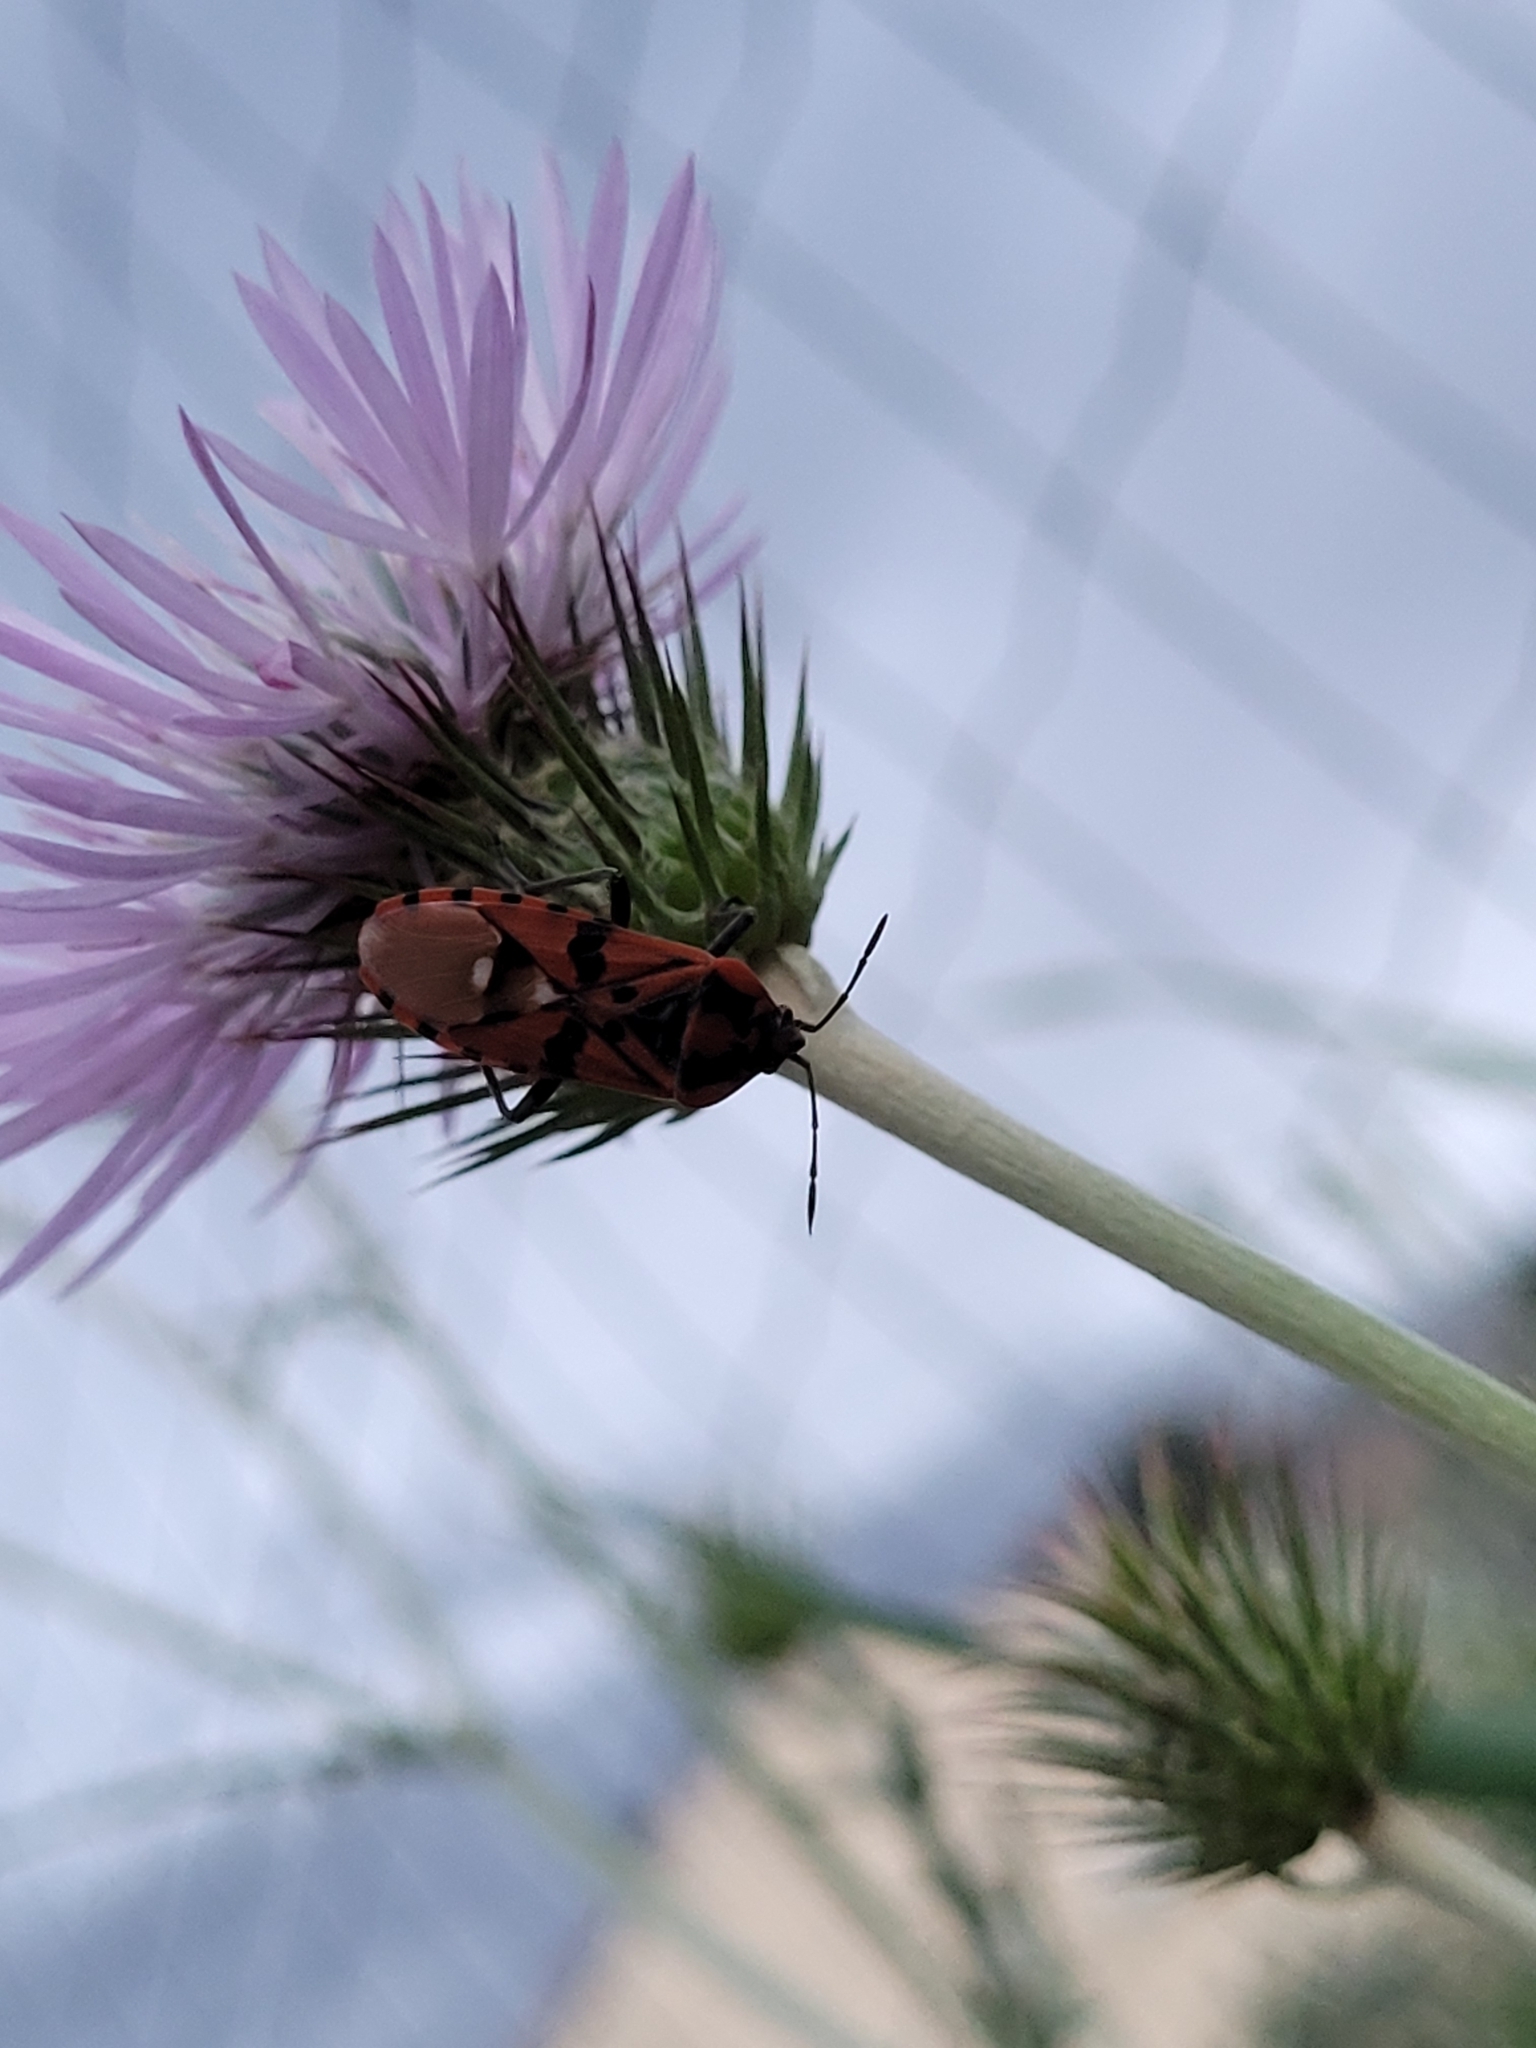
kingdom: Animalia
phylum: Arthropoda
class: Insecta
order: Hemiptera
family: Lygaeidae
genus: Spilostethus
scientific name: Spilostethus pandurus
